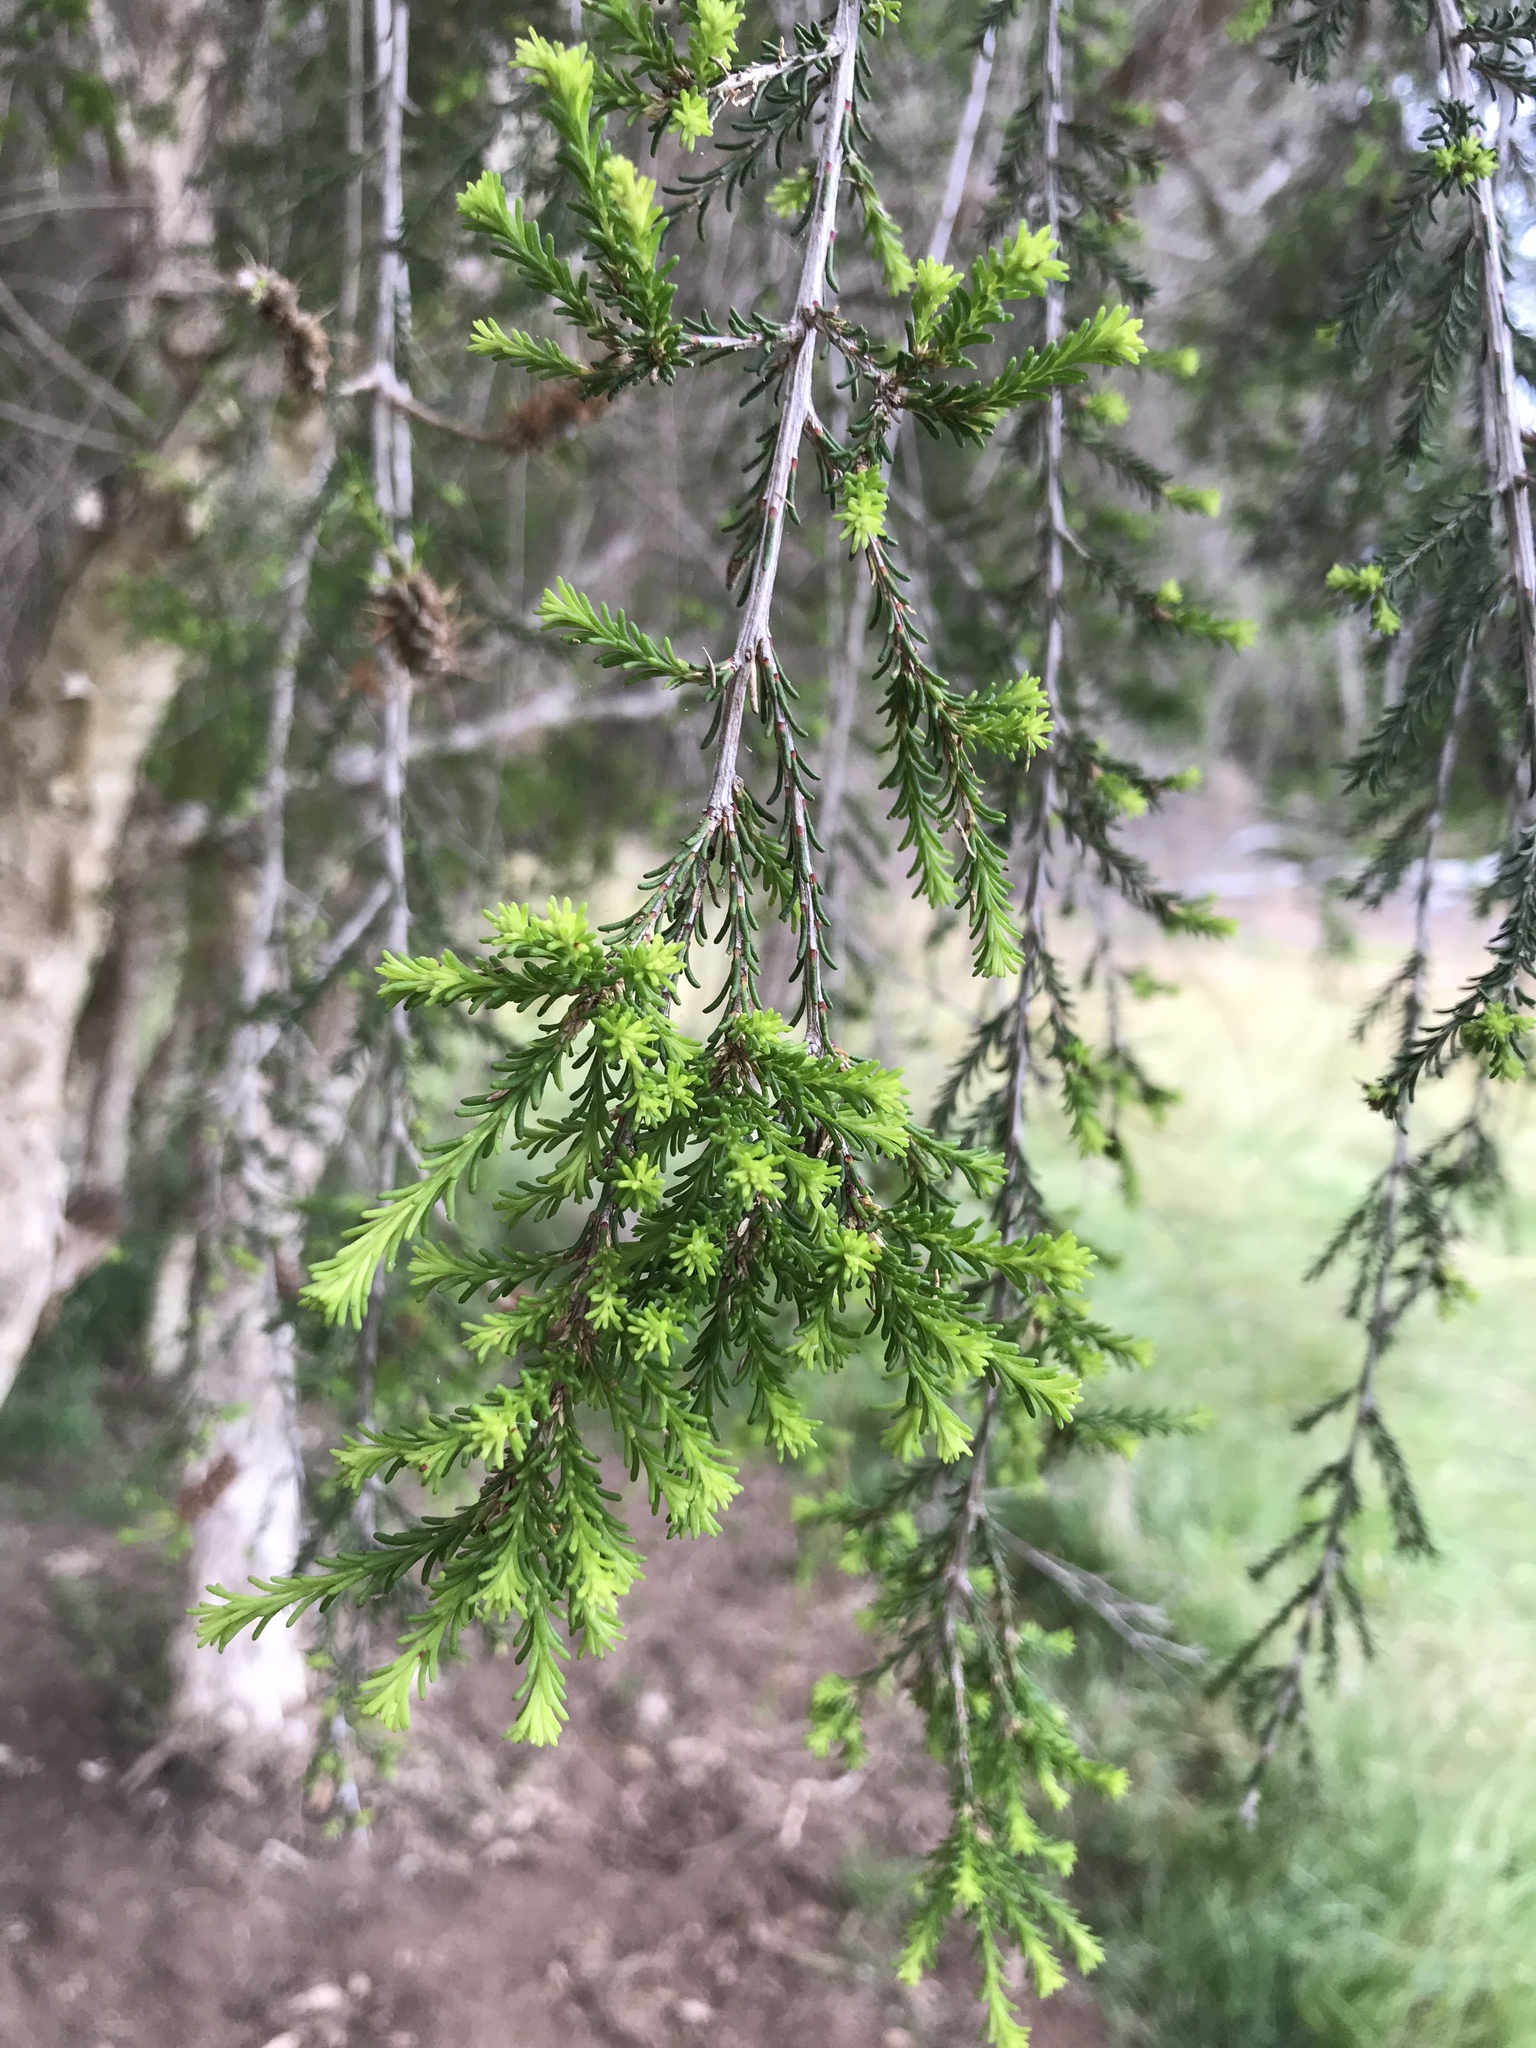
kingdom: Plantae
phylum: Tracheophyta
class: Magnoliopsida
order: Myrtales
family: Myrtaceae
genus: Melaleuca
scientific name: Melaleuca rhaphiophylla
